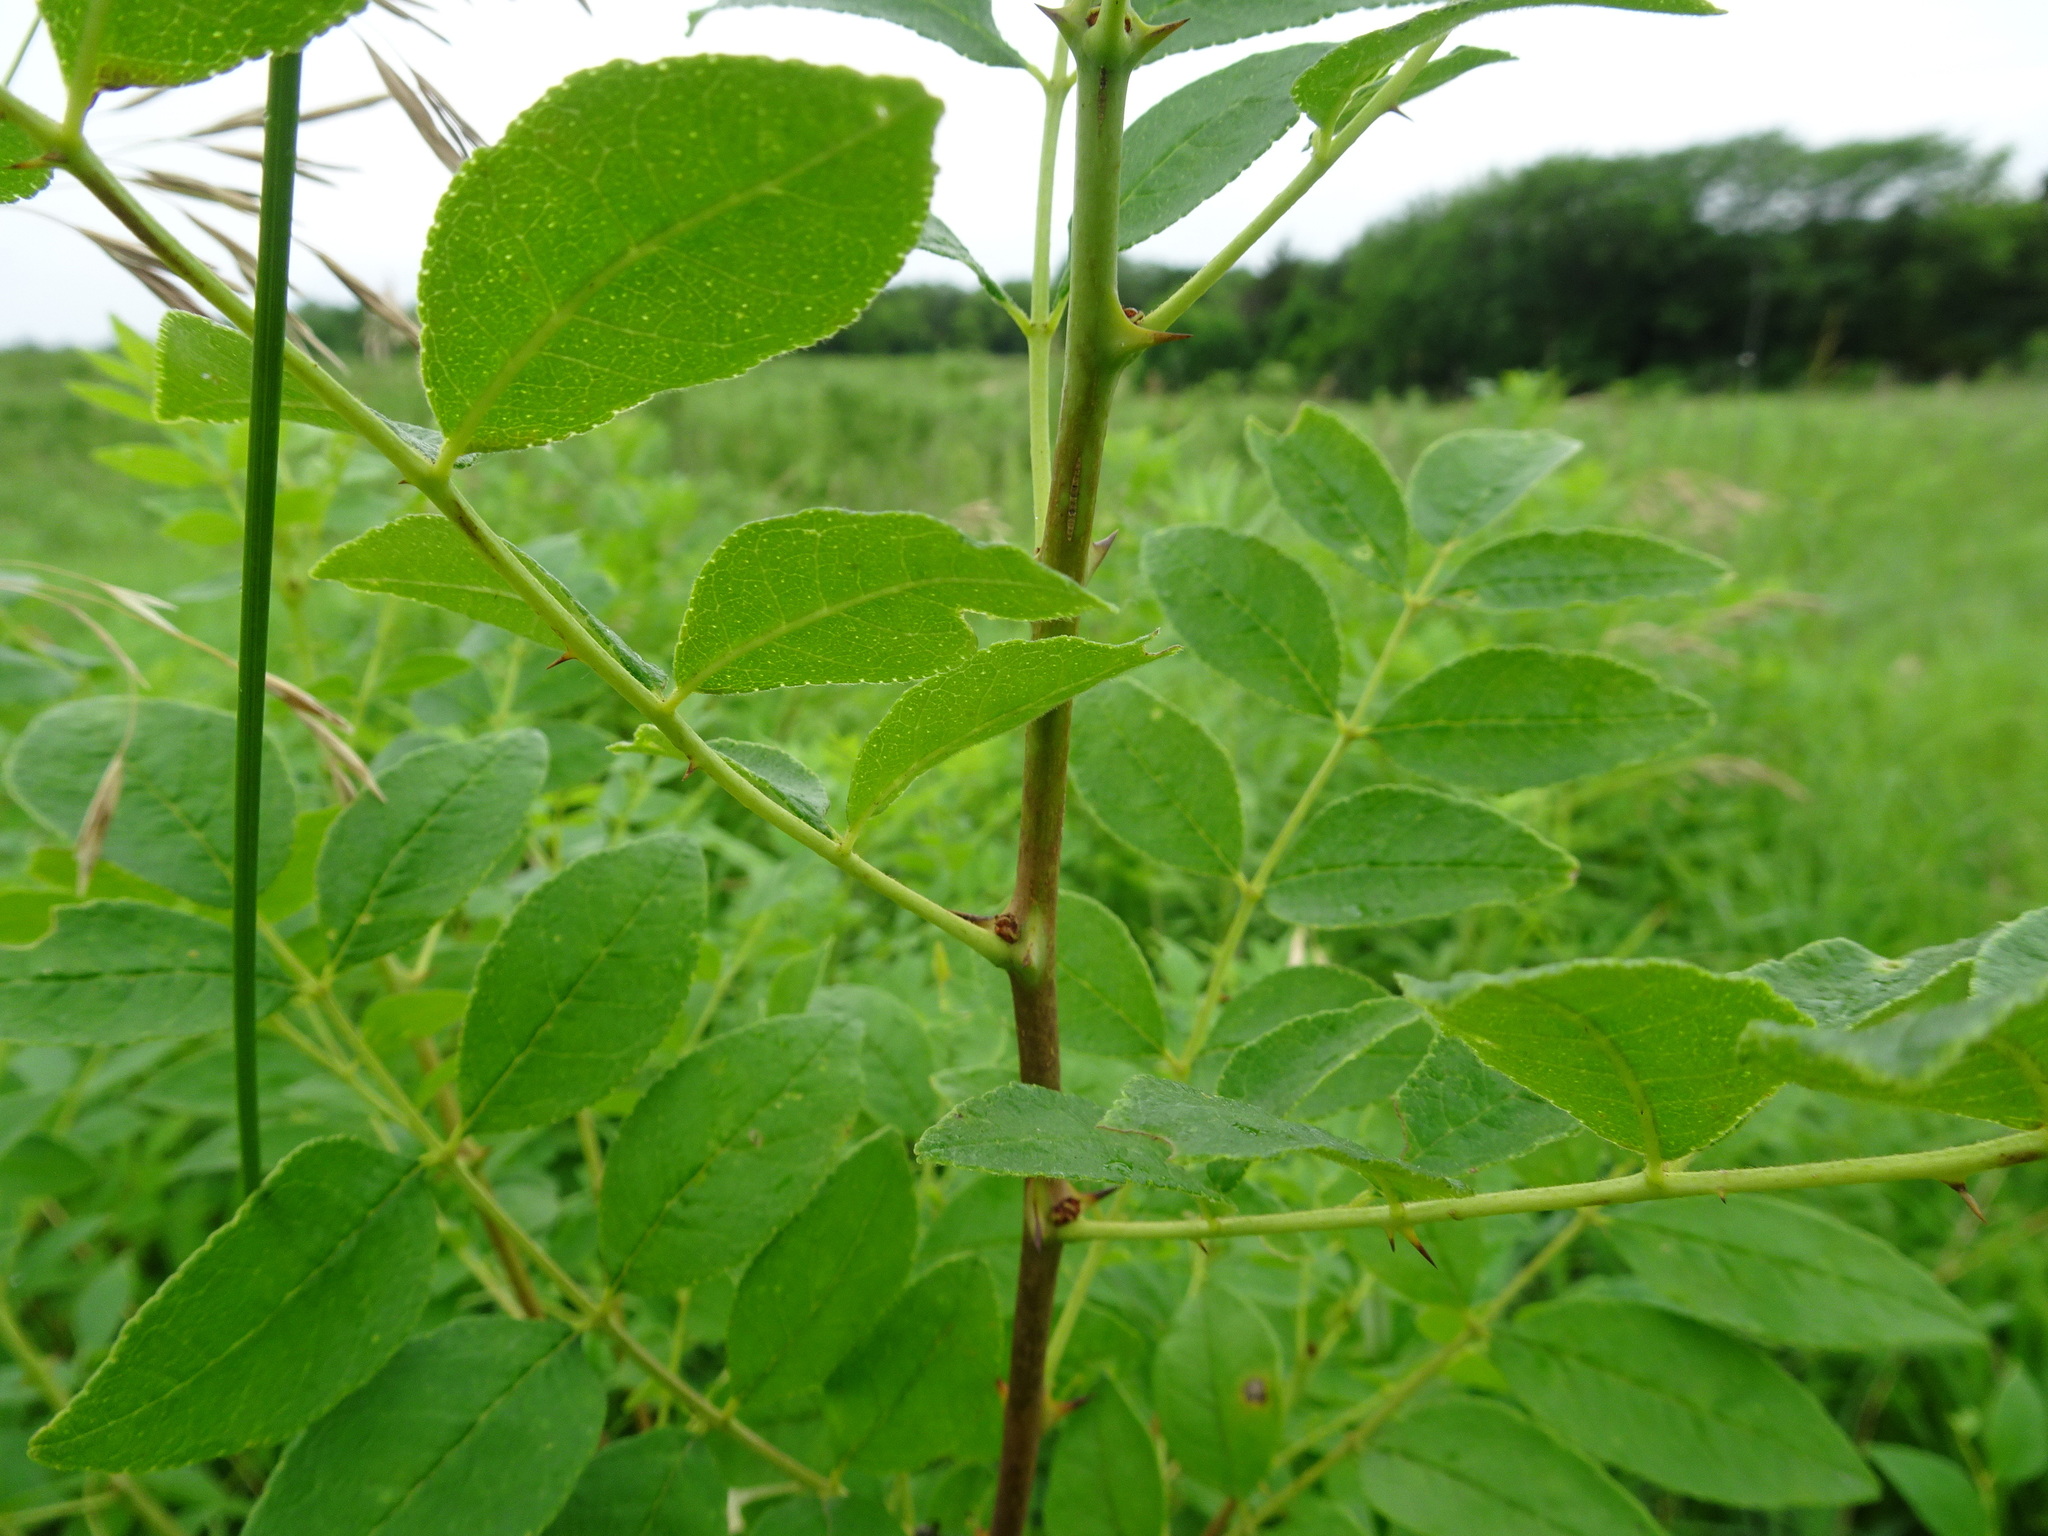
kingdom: Plantae
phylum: Tracheophyta
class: Magnoliopsida
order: Sapindales
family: Rutaceae
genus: Zanthoxylum
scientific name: Zanthoxylum americanum
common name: Northern prickly-ash
